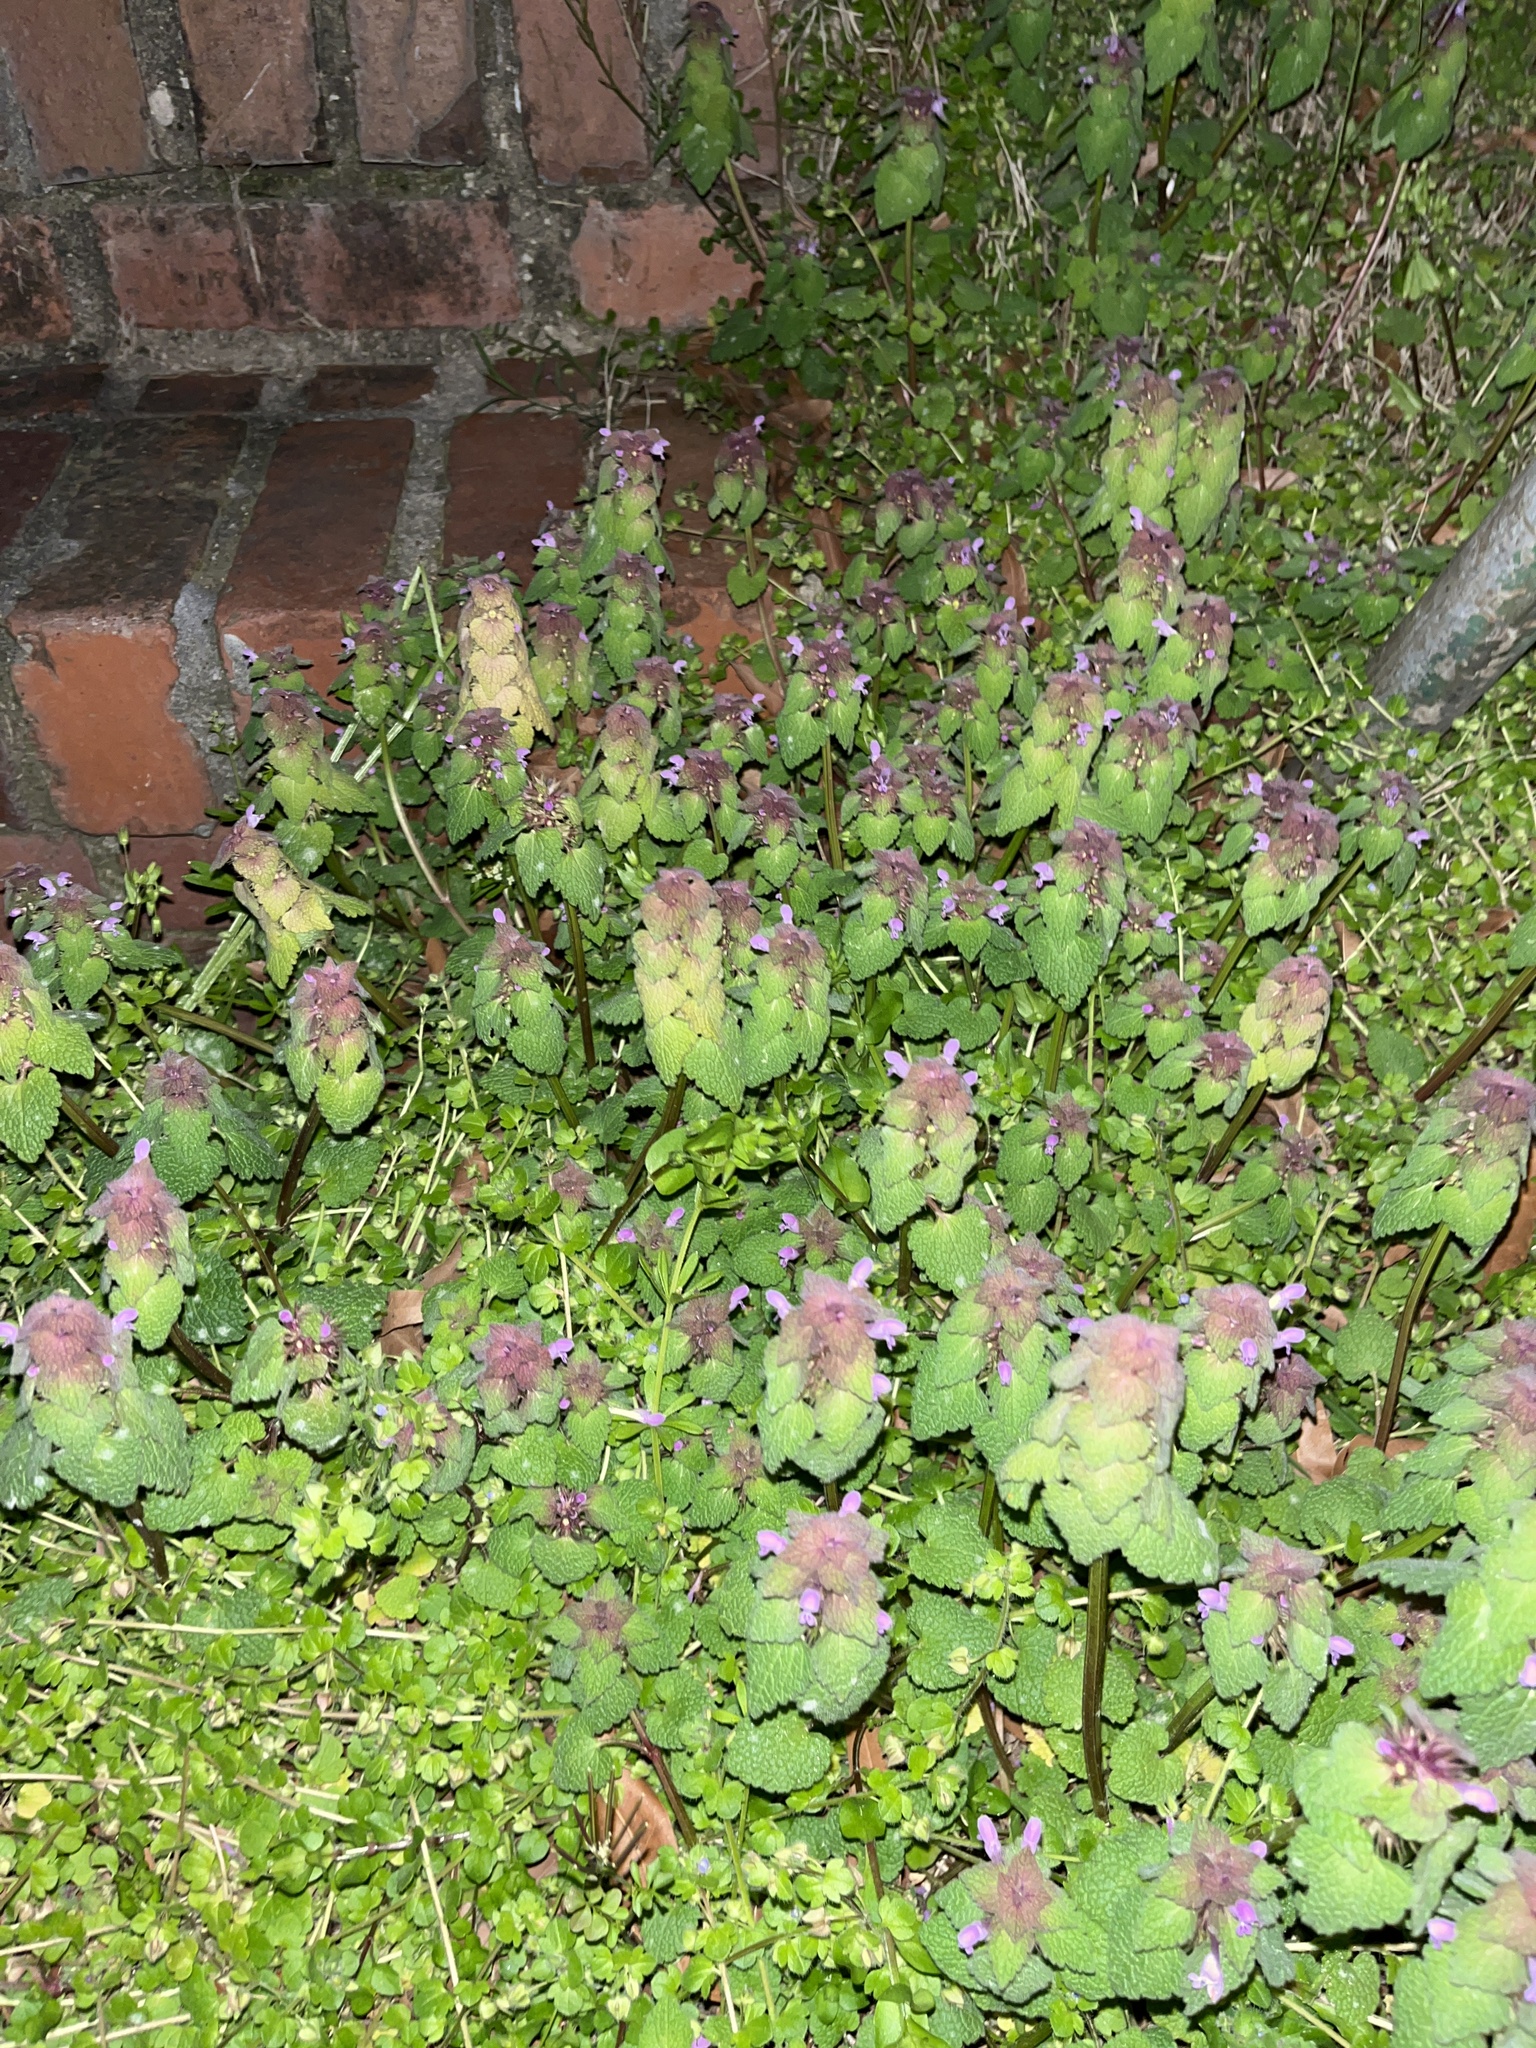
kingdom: Plantae
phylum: Tracheophyta
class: Magnoliopsida
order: Lamiales
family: Lamiaceae
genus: Lamium
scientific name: Lamium purpureum
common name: Red dead-nettle
